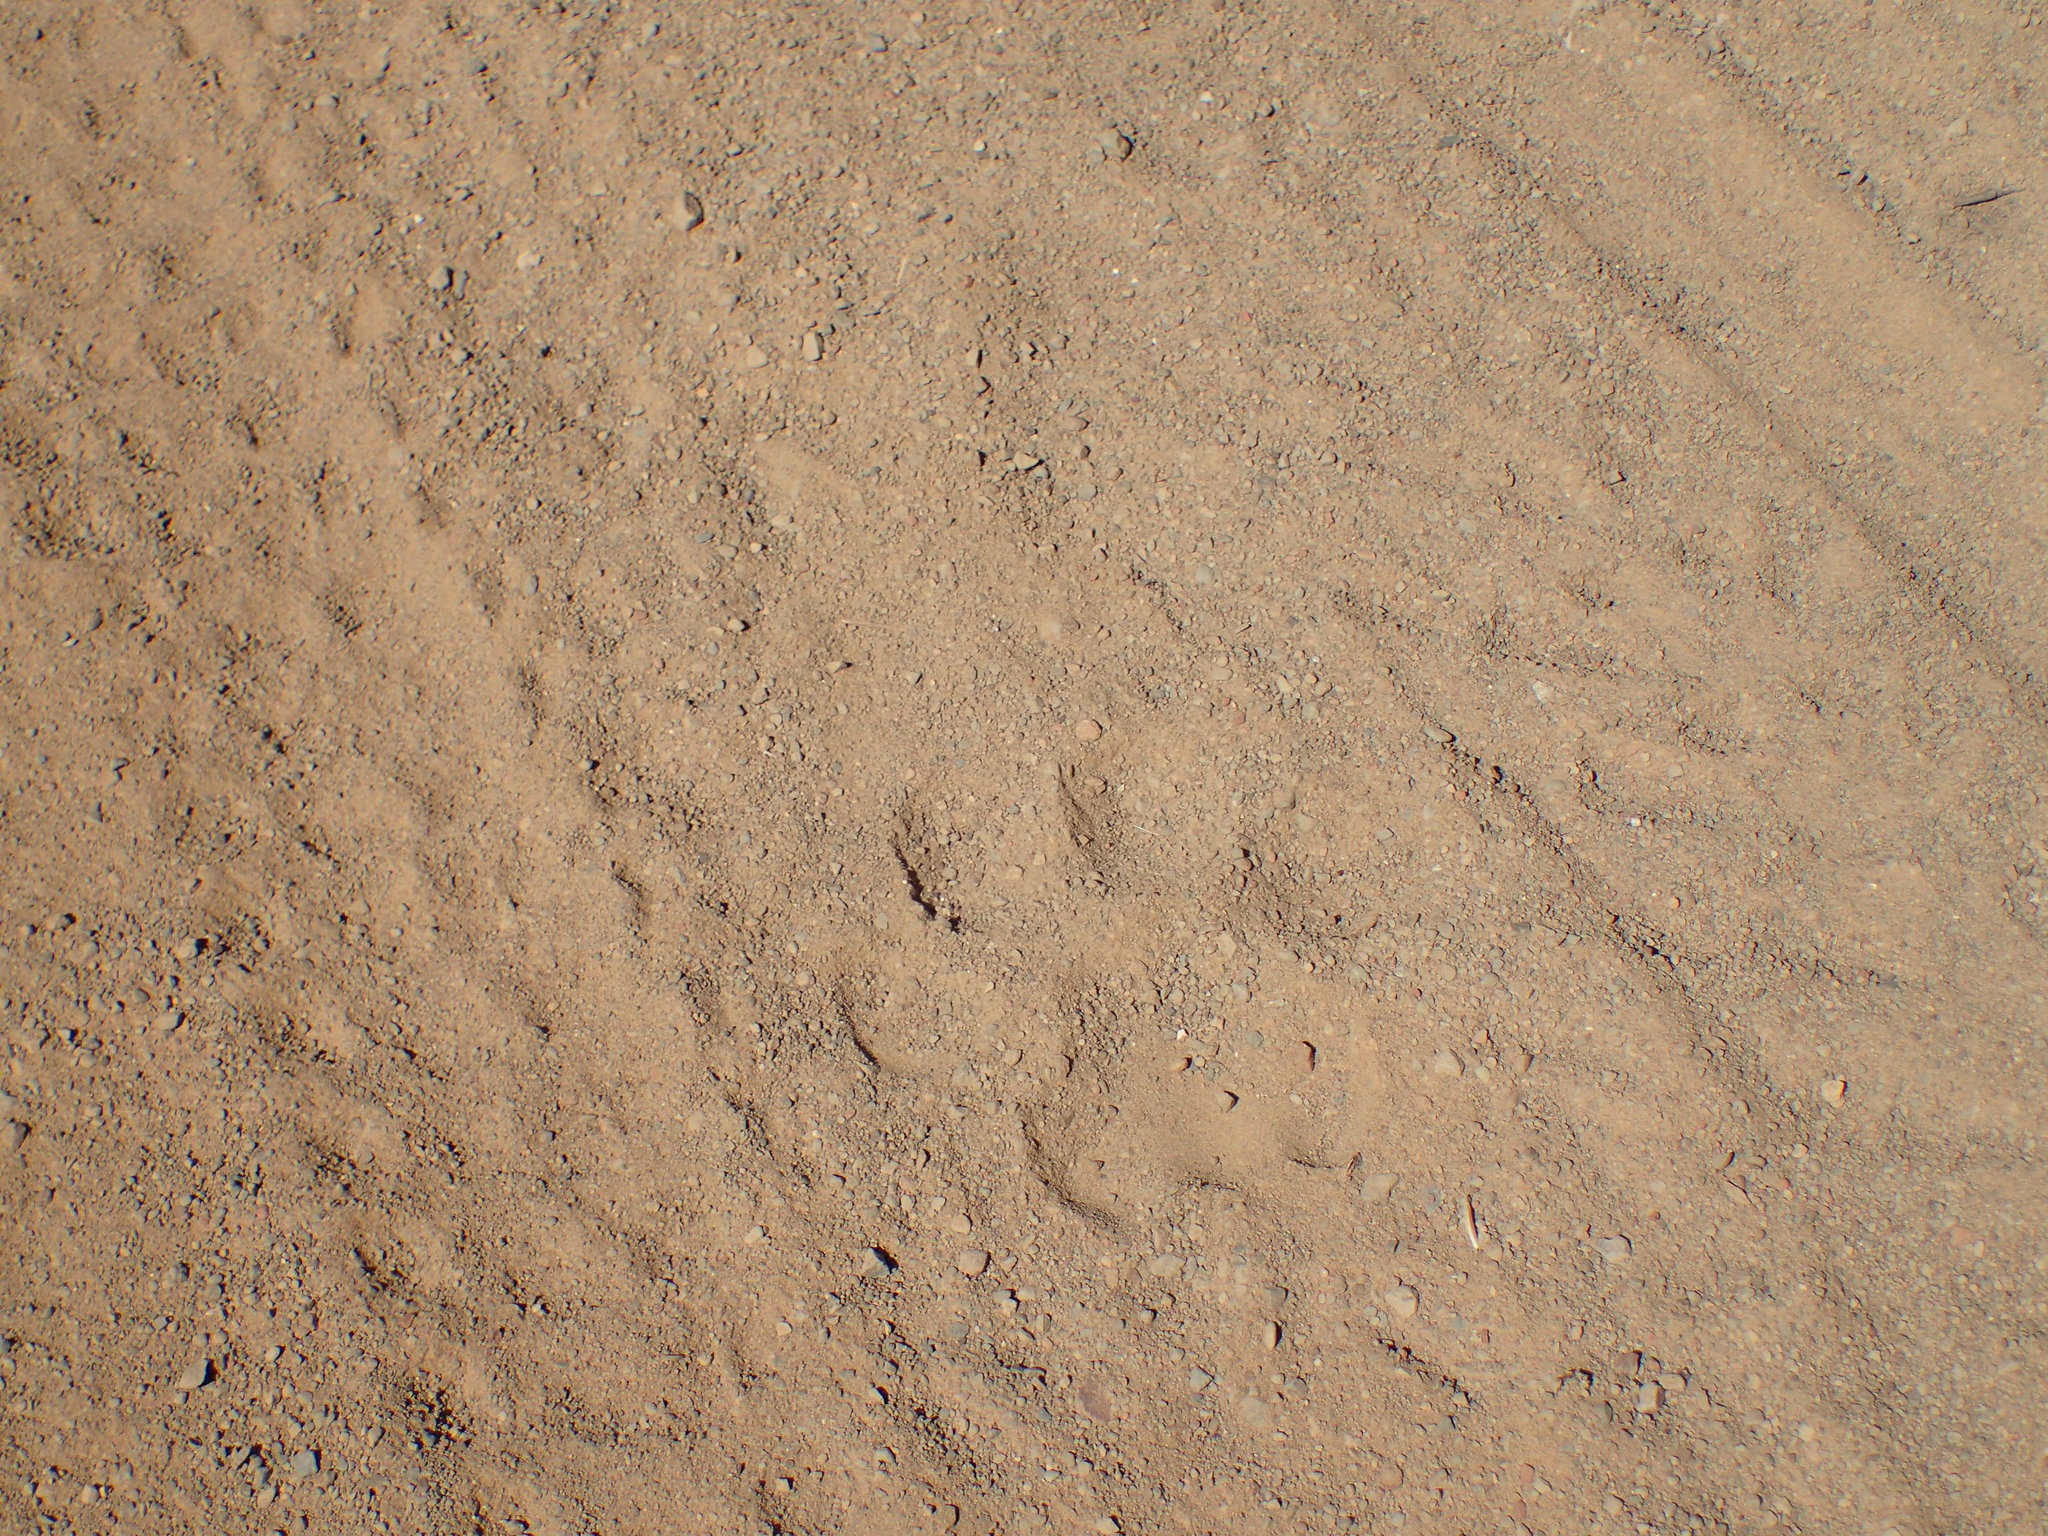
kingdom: Animalia
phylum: Chordata
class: Mammalia
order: Carnivora
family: Felidae
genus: Puma
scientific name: Puma concolor
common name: Puma
